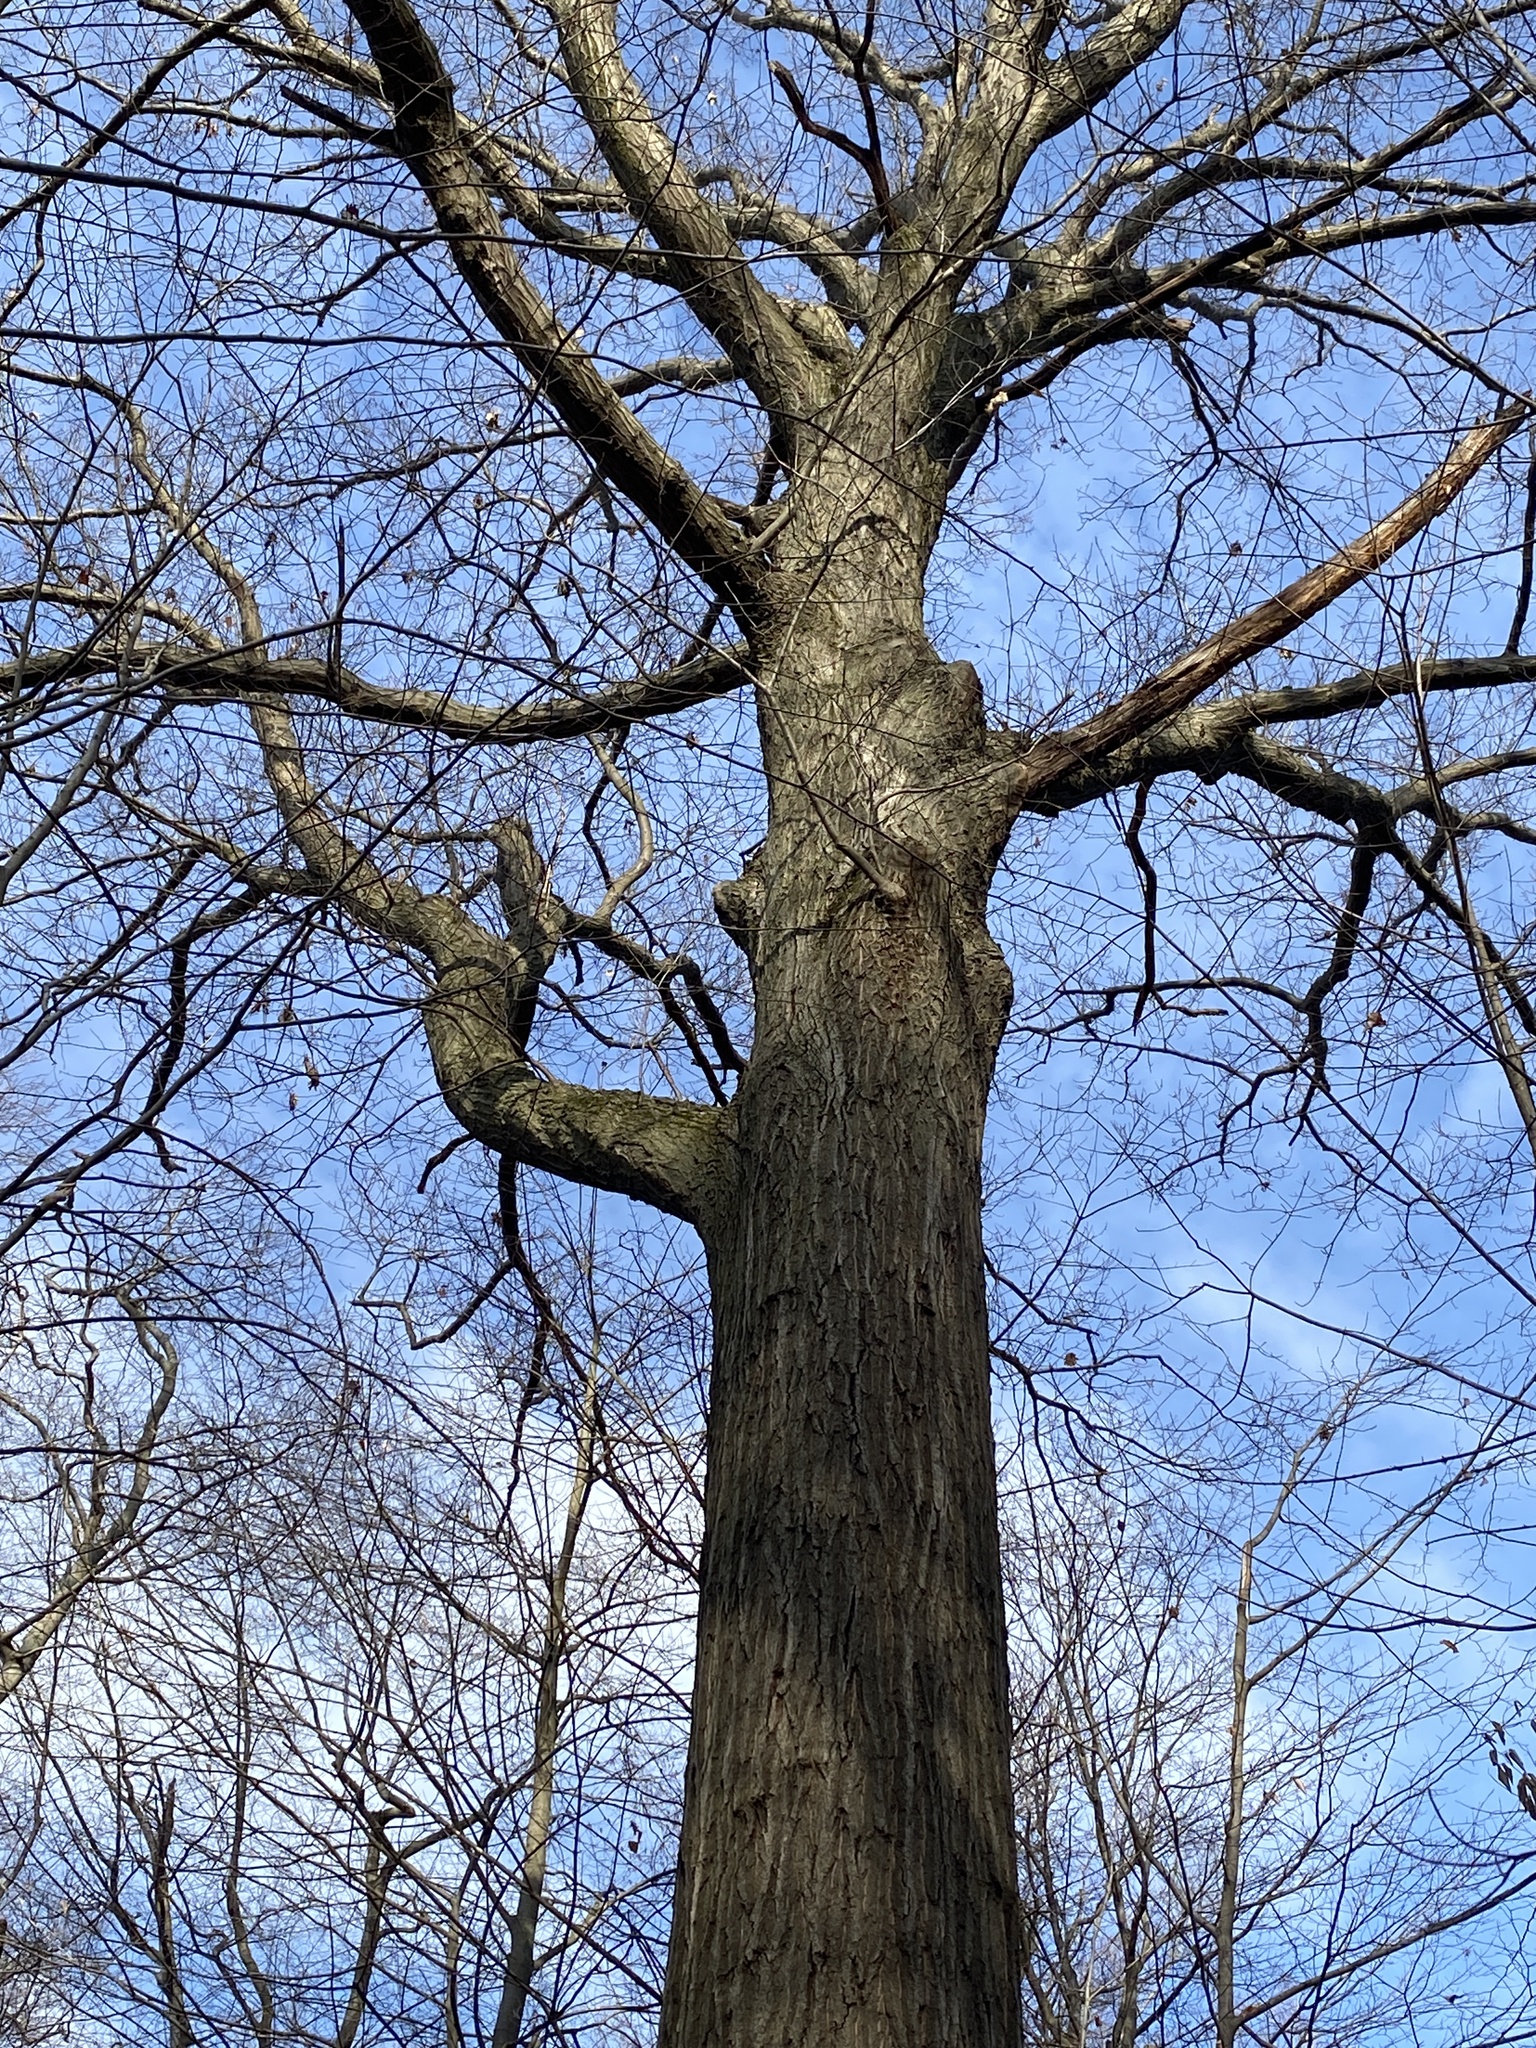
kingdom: Plantae
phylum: Tracheophyta
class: Magnoliopsida
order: Fagales
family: Fagaceae
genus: Quercus
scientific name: Quercus rubra
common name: Red oak
